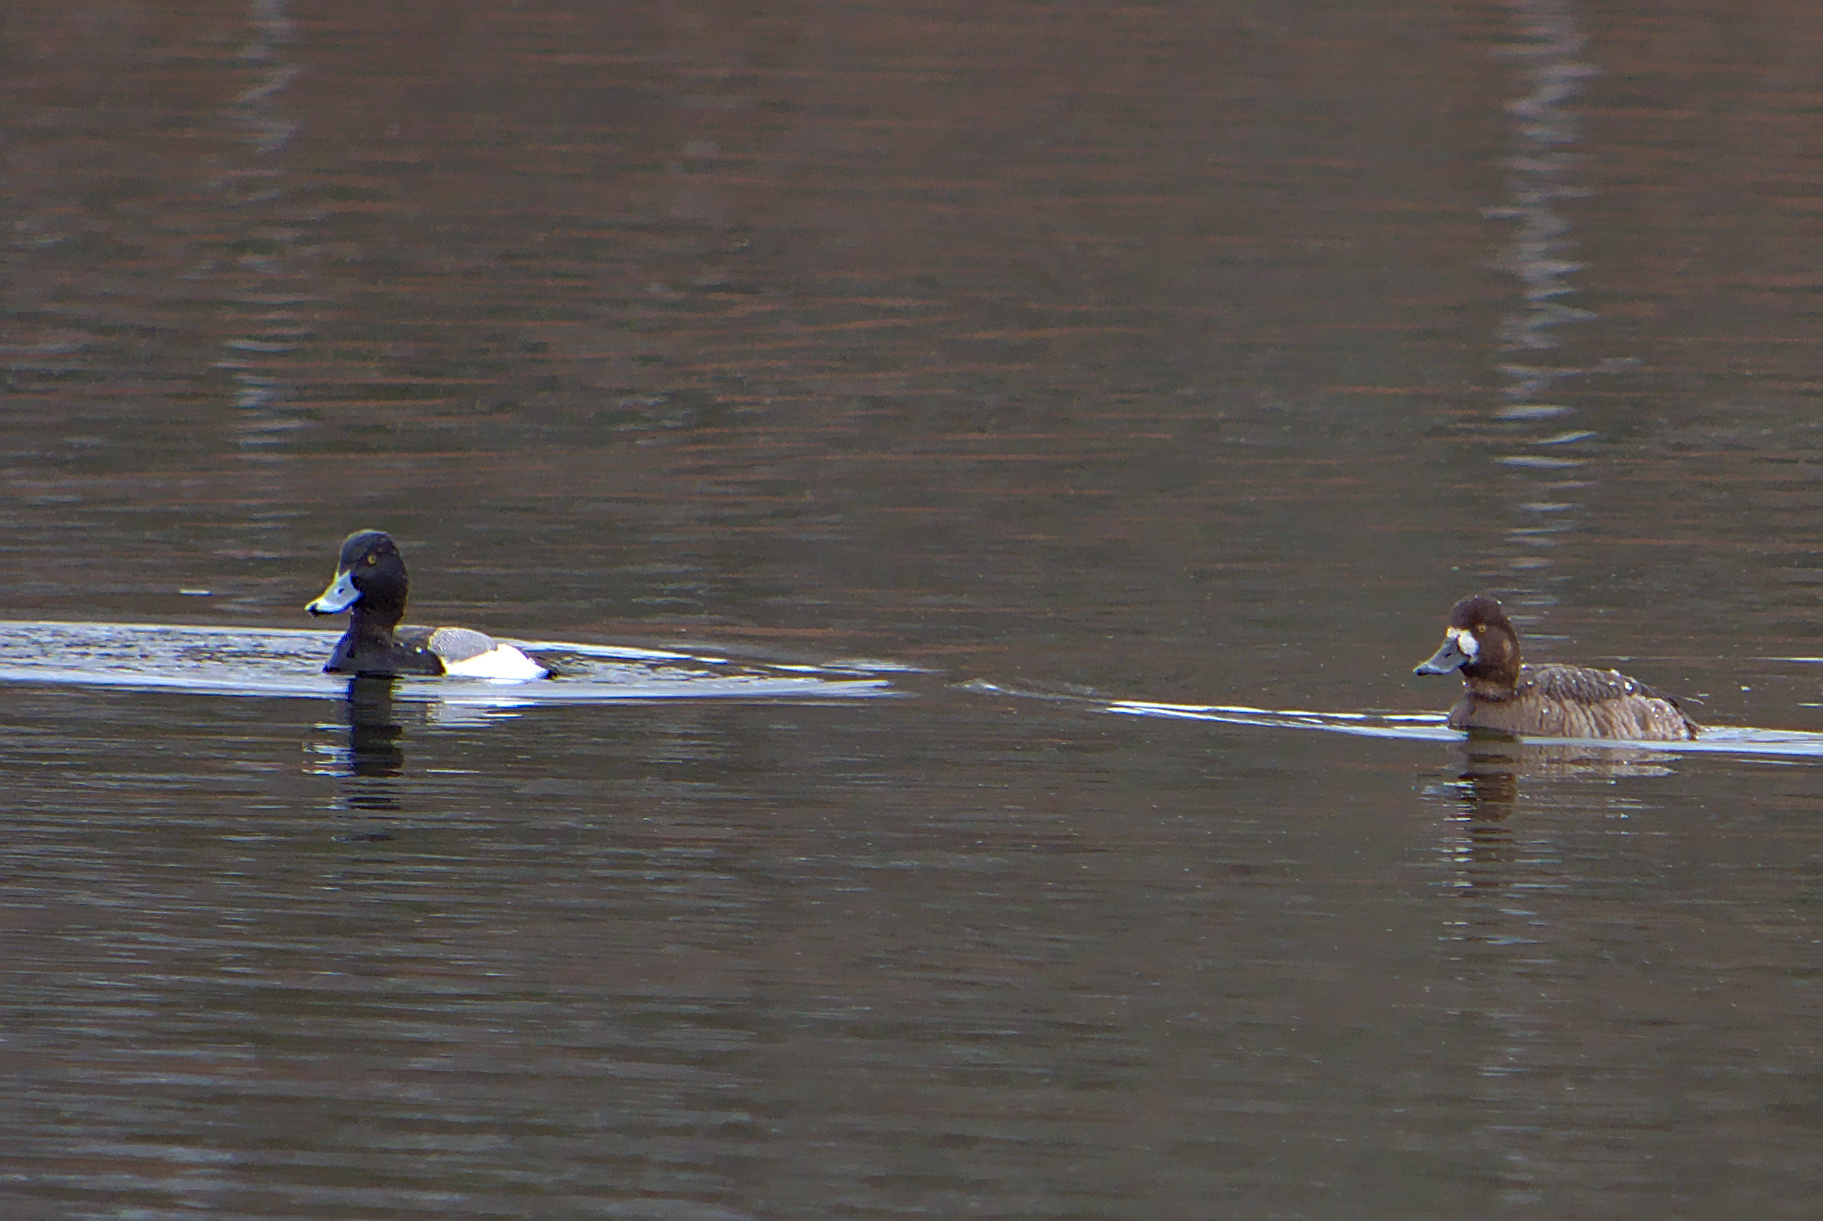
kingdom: Animalia
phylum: Chordata
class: Aves
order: Anseriformes
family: Anatidae
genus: Aythya
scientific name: Aythya marila
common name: Greater scaup
